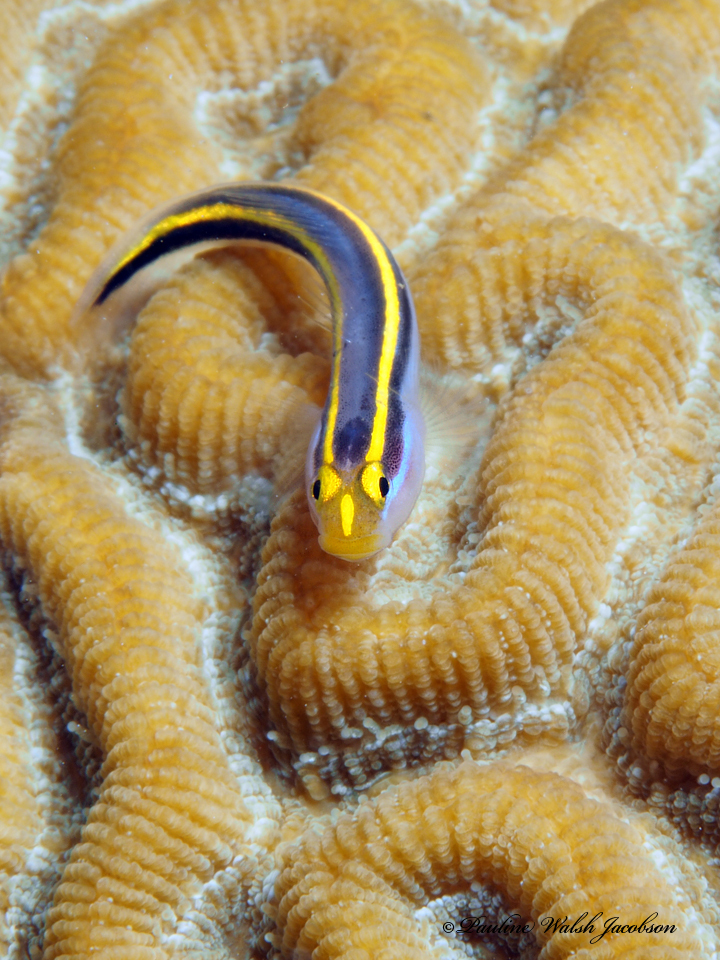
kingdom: Animalia
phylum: Chordata
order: Perciformes
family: Gobiidae
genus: Elacatinus
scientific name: Elacatinus randalli
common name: Yellownose goby
